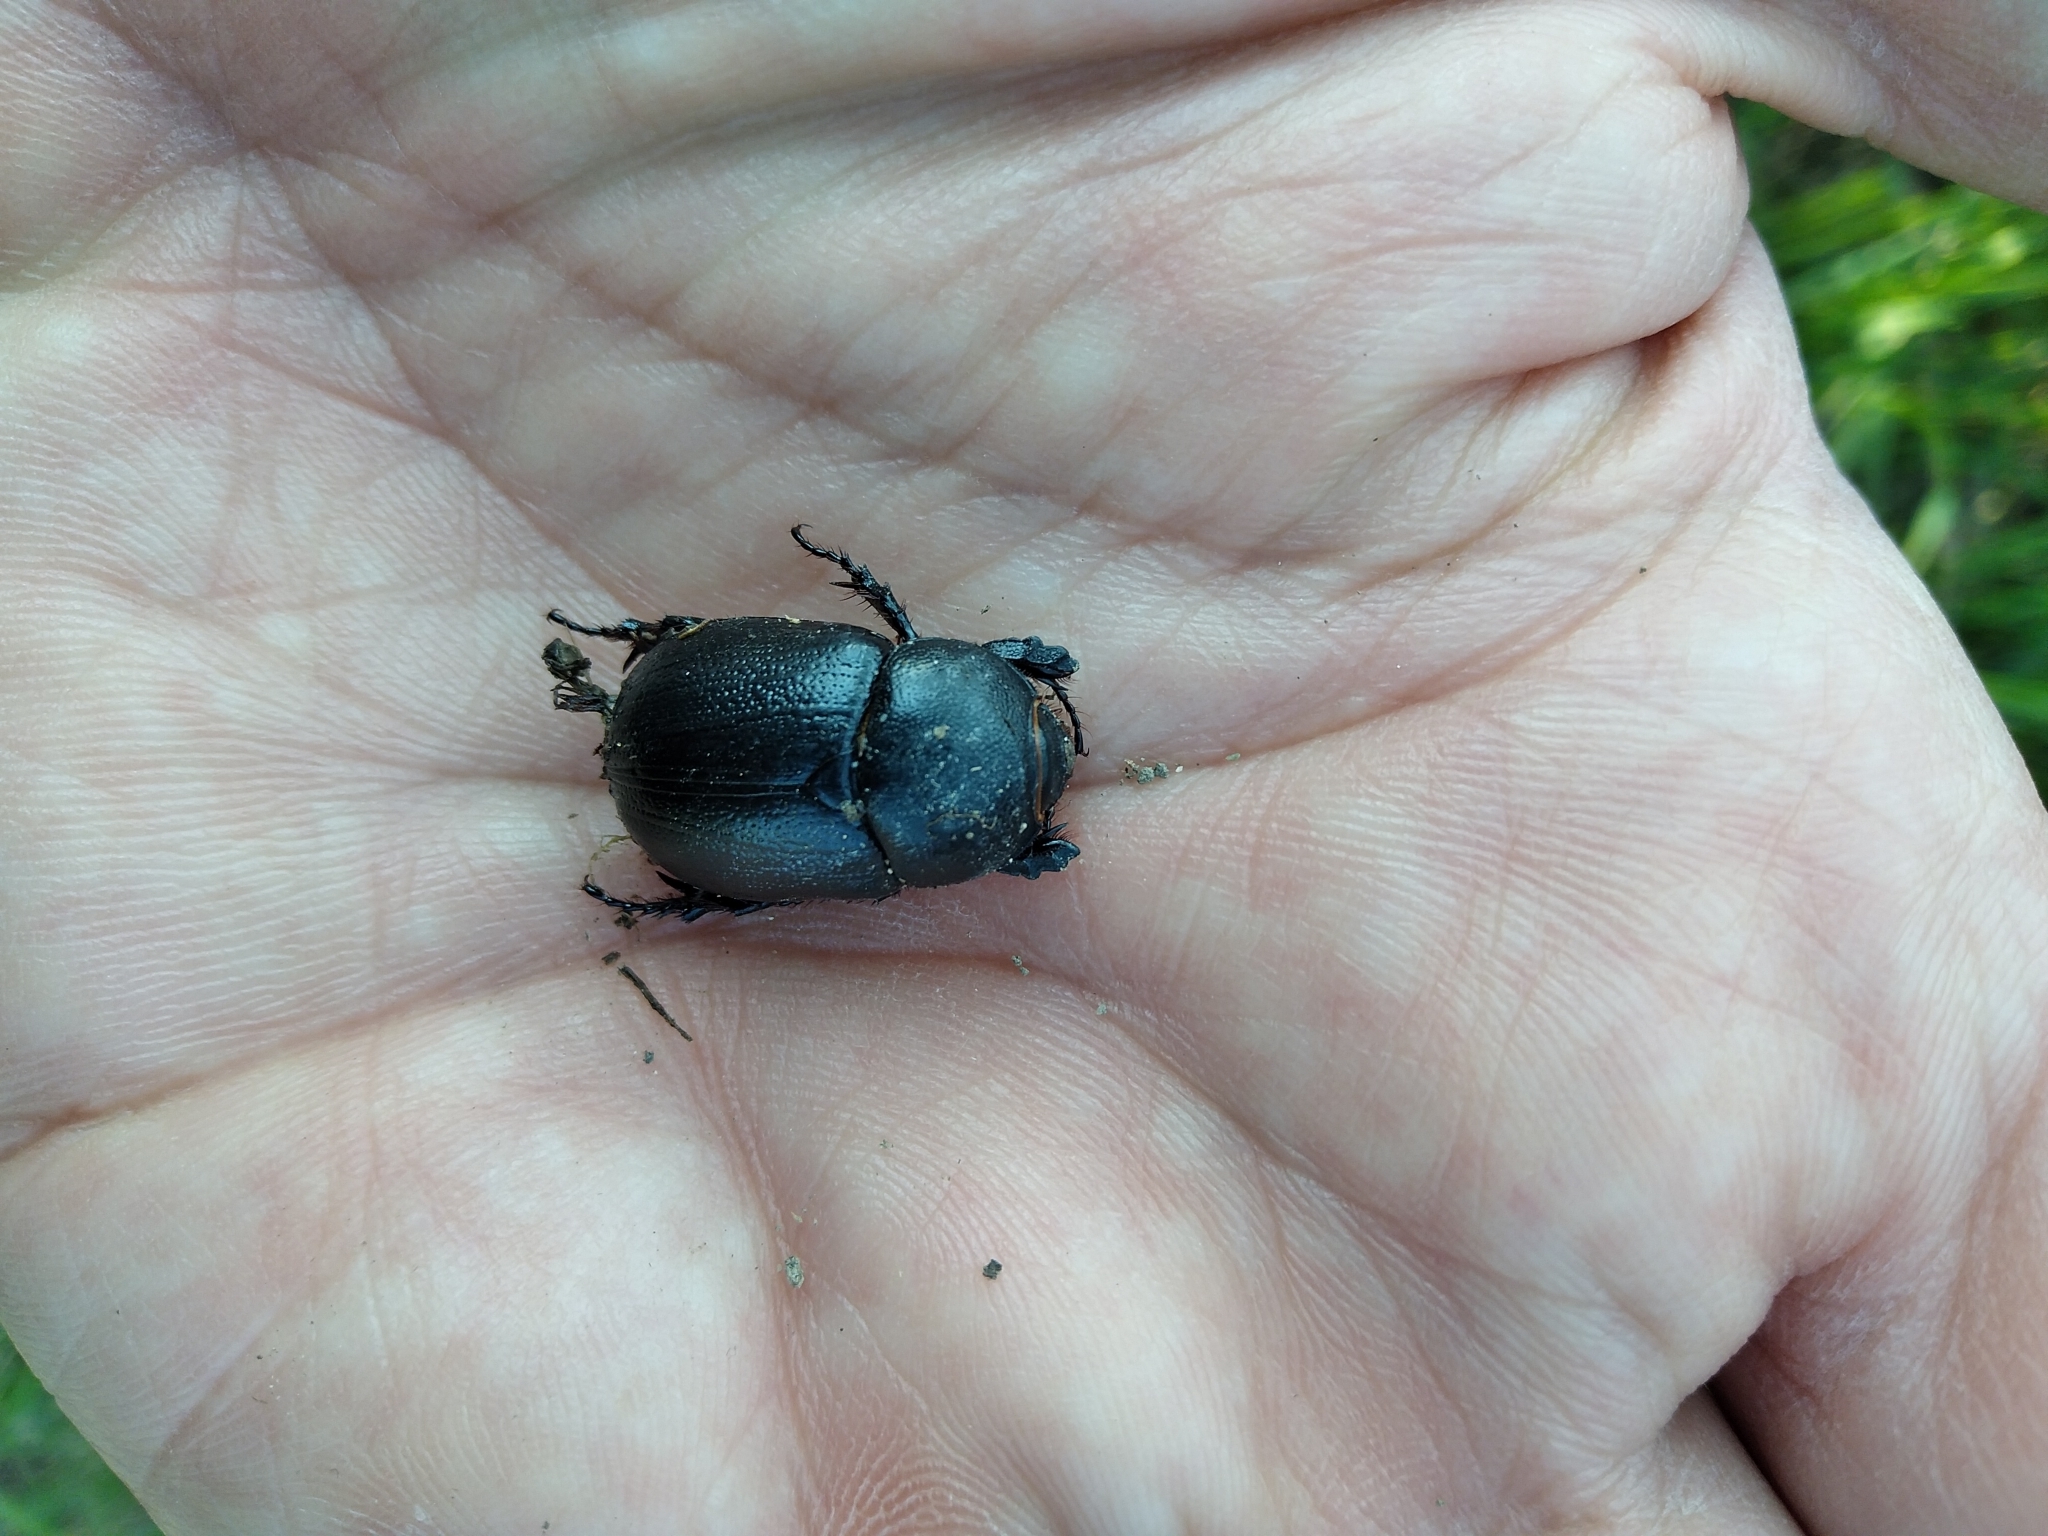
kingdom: Animalia
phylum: Arthropoda
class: Insecta
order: Coleoptera
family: Scarabaeidae
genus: Pentodon
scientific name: Pentodon bidens
